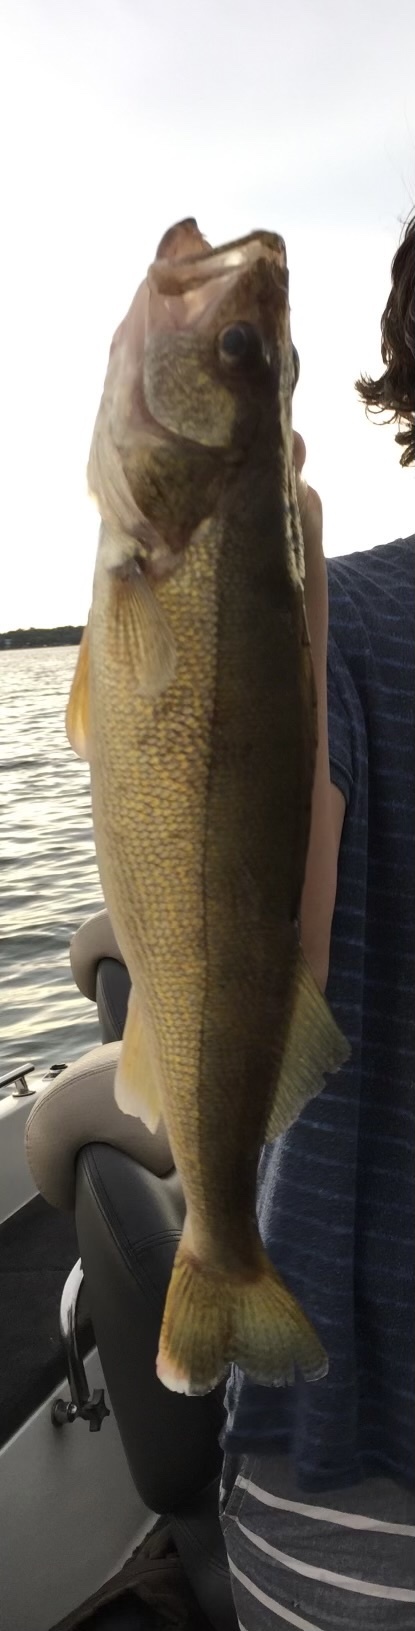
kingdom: Animalia
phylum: Chordata
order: Perciformes
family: Percidae
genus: Sander
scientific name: Sander vitreus
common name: Walleye
